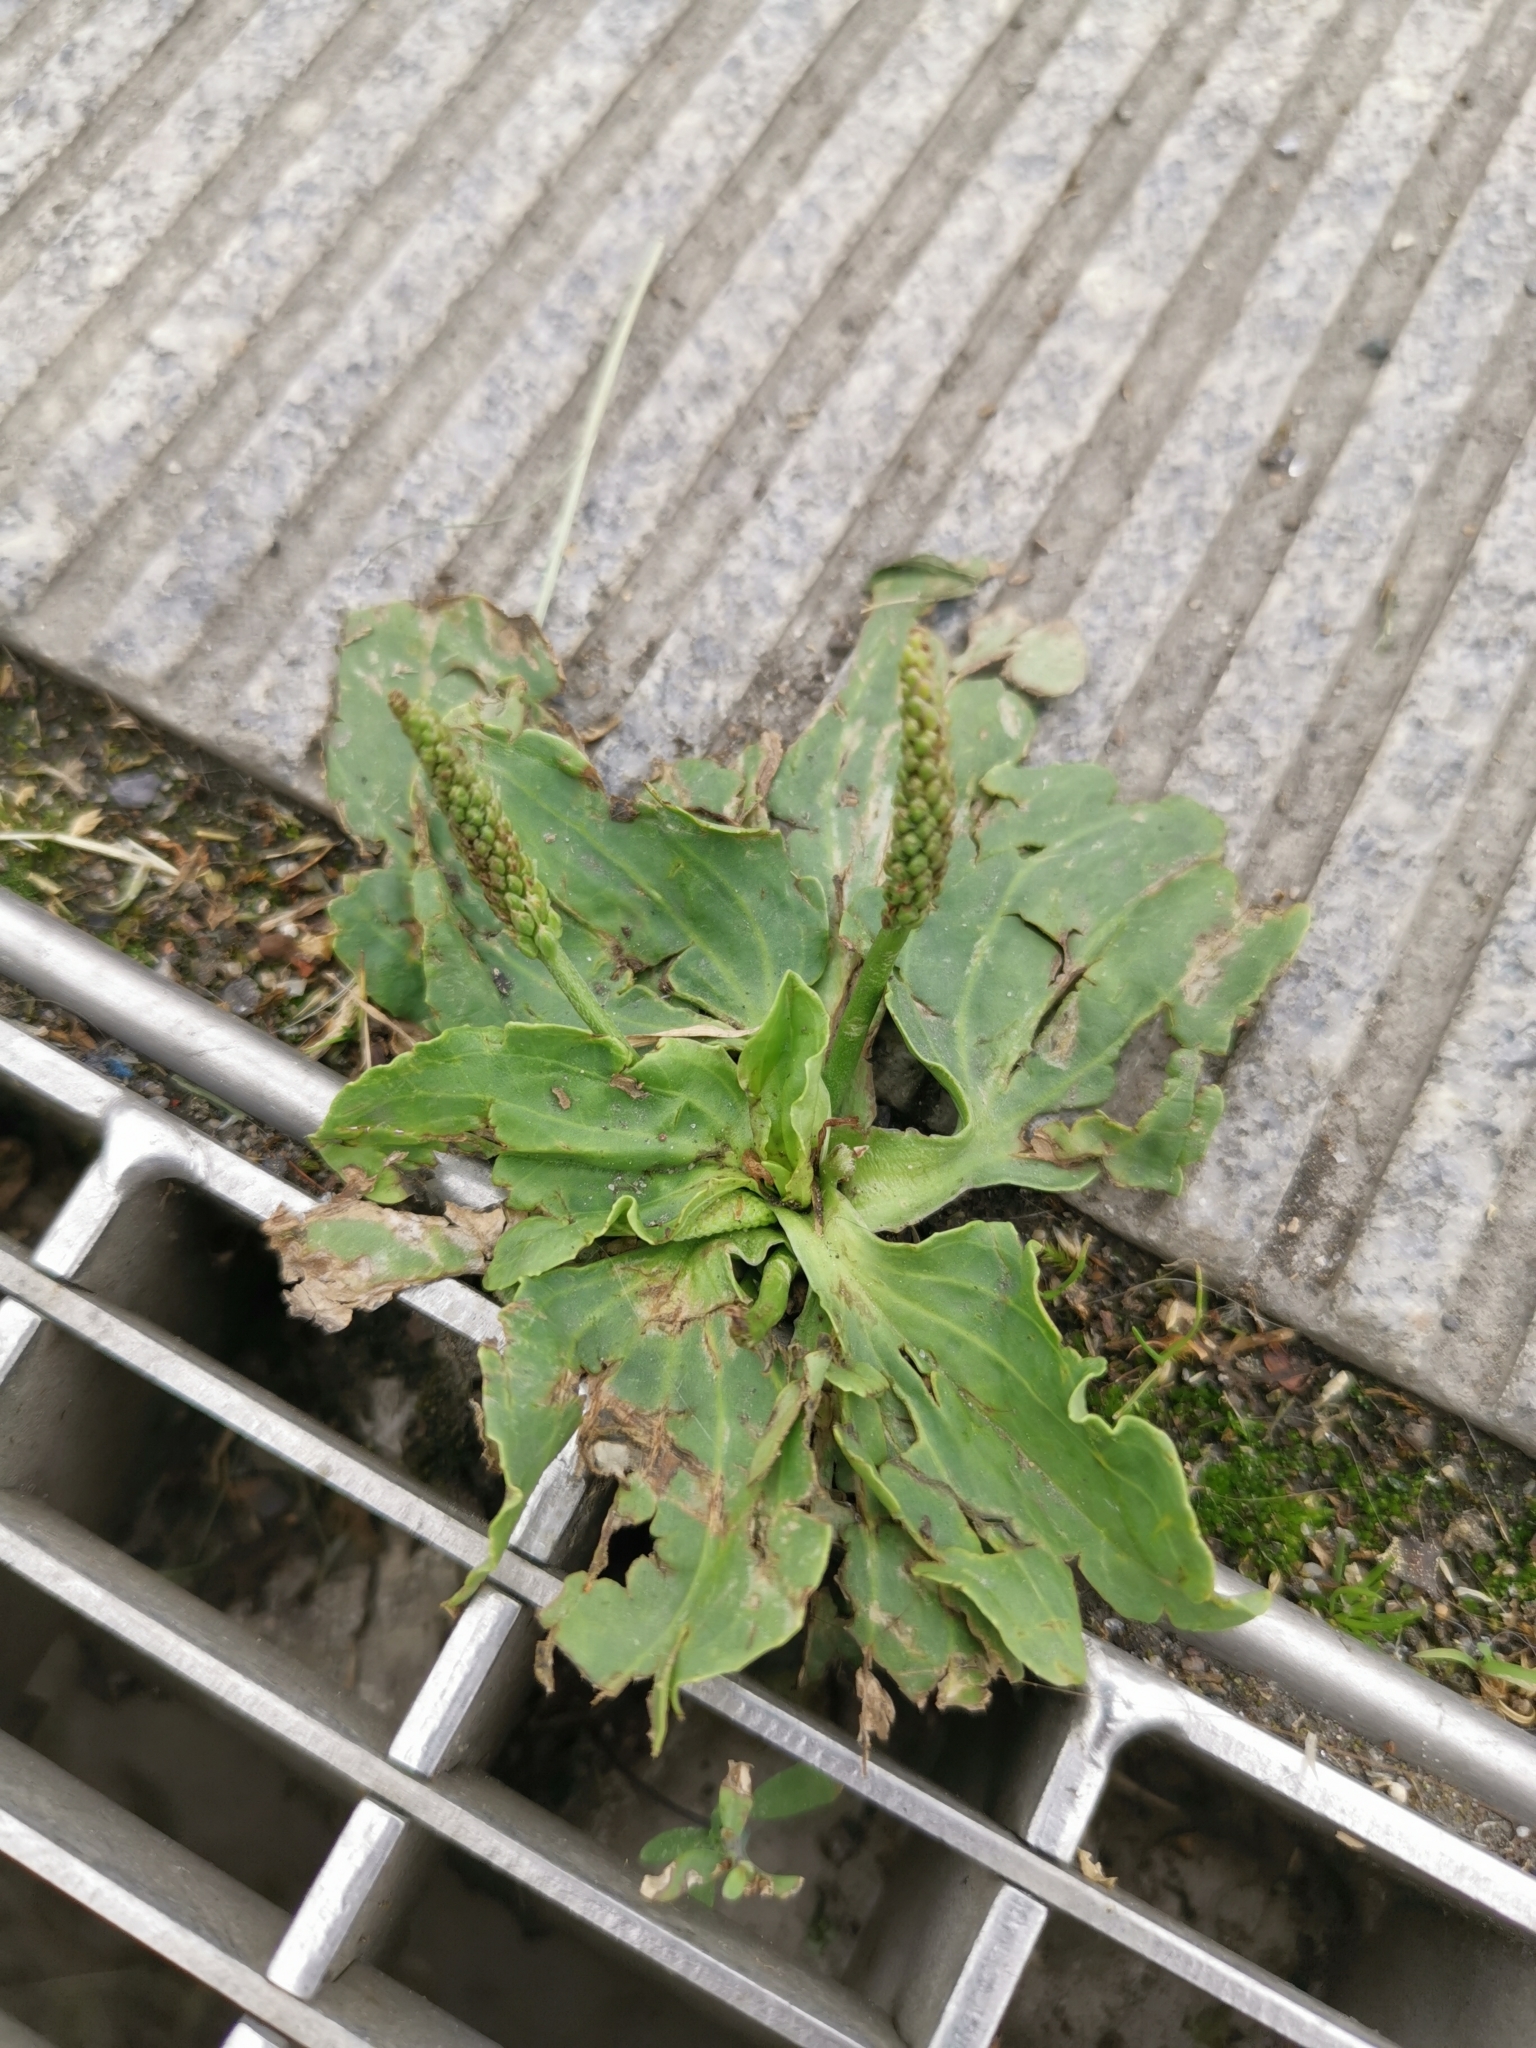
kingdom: Plantae
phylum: Tracheophyta
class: Magnoliopsida
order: Lamiales
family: Plantaginaceae
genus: Plantago
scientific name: Plantago major
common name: Common plantain
